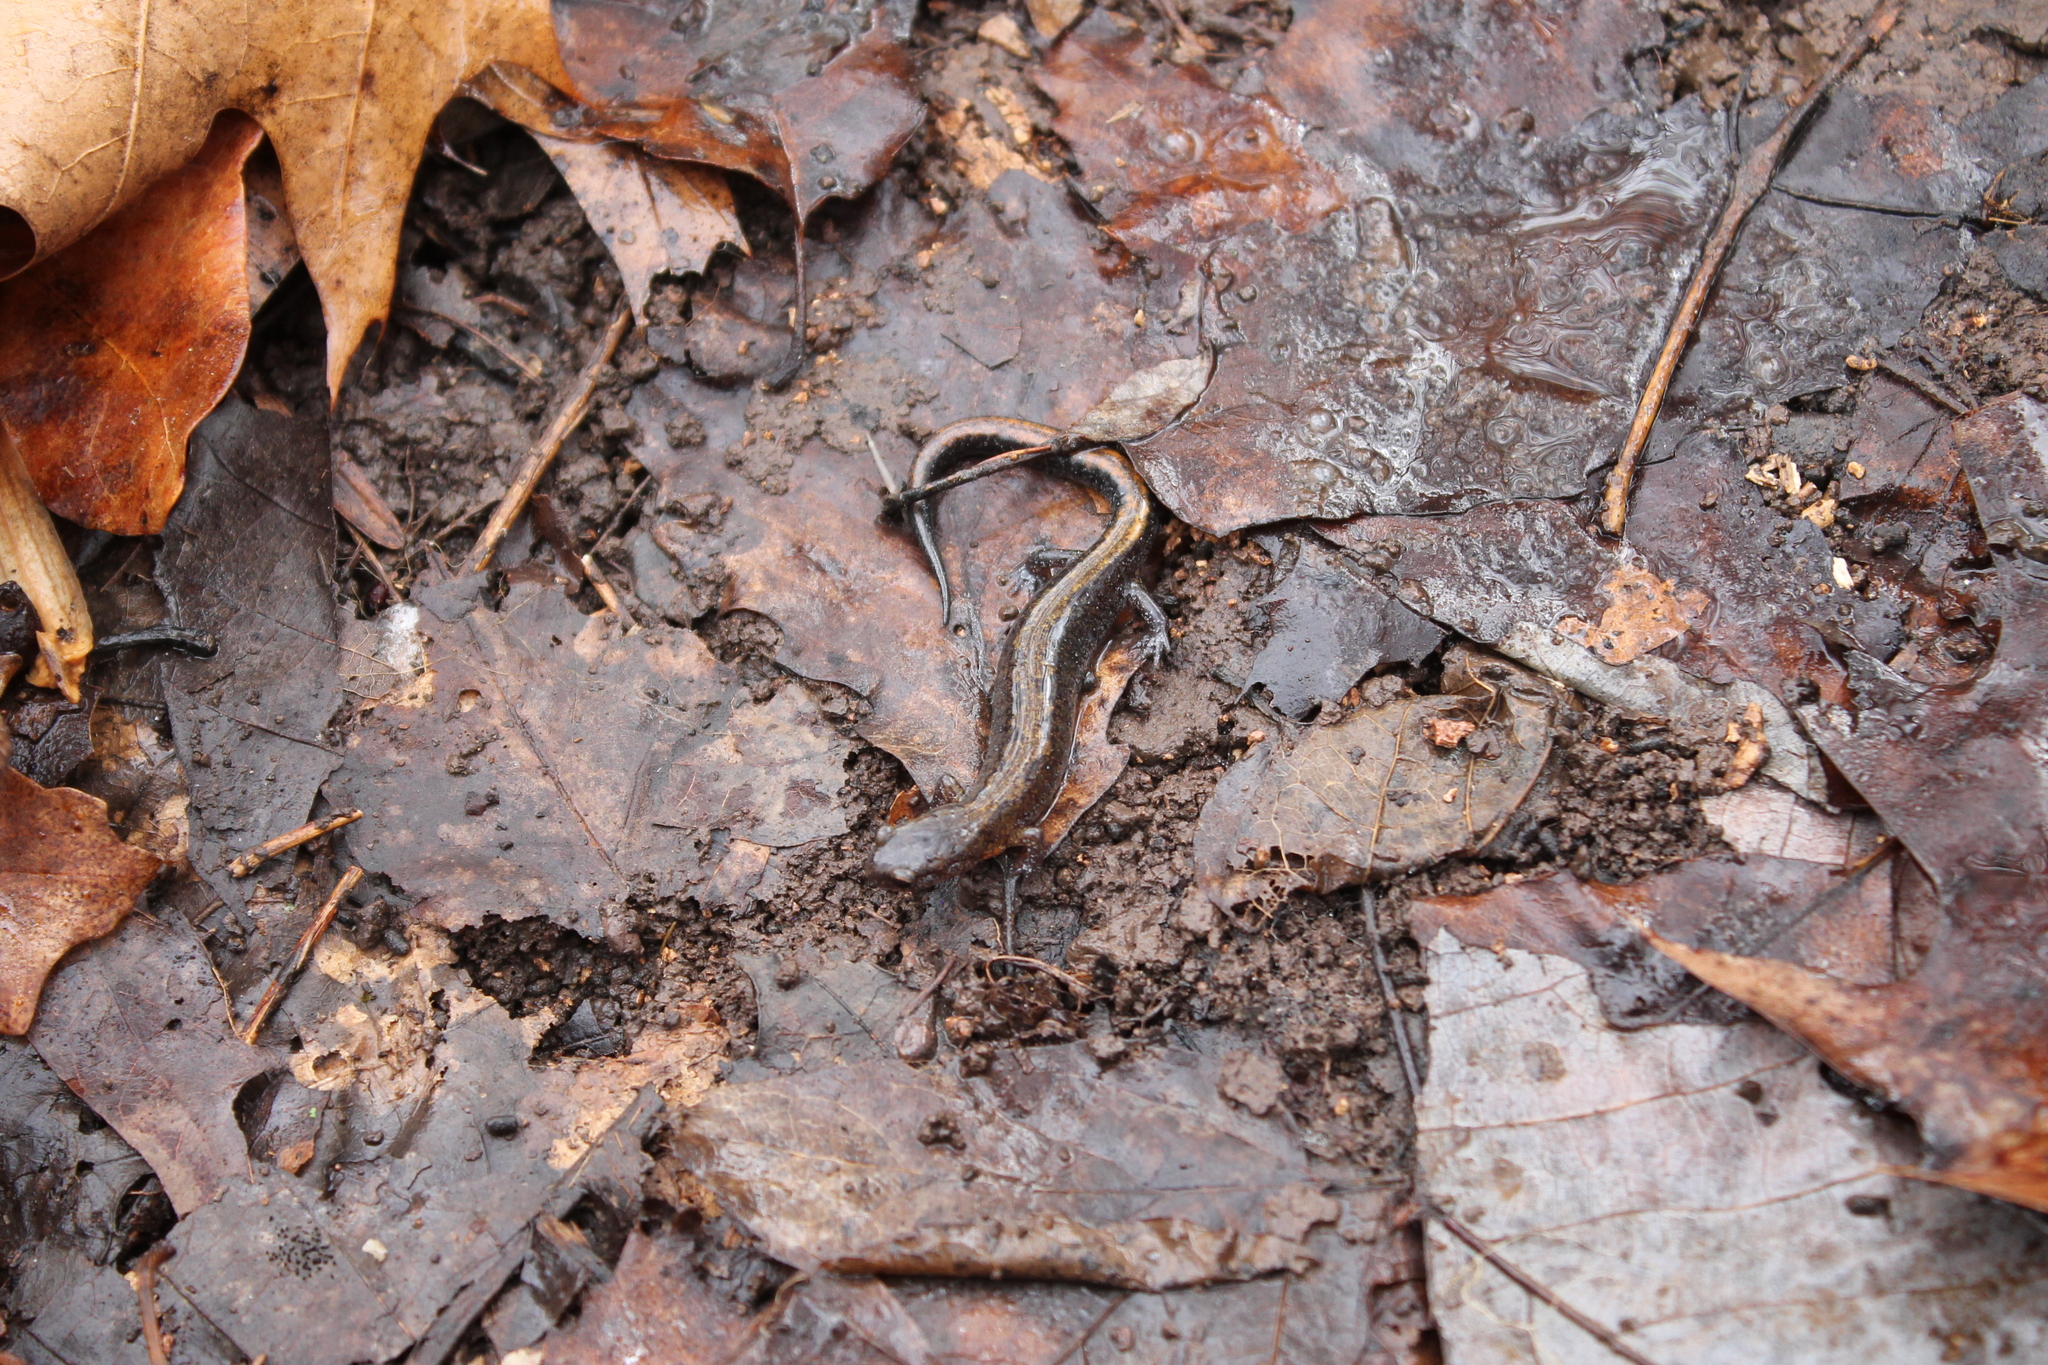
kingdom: Animalia
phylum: Chordata
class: Amphibia
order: Caudata
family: Plethodontidae
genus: Plethodon
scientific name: Plethodon dorsalis
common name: Northern zigzag salamander
